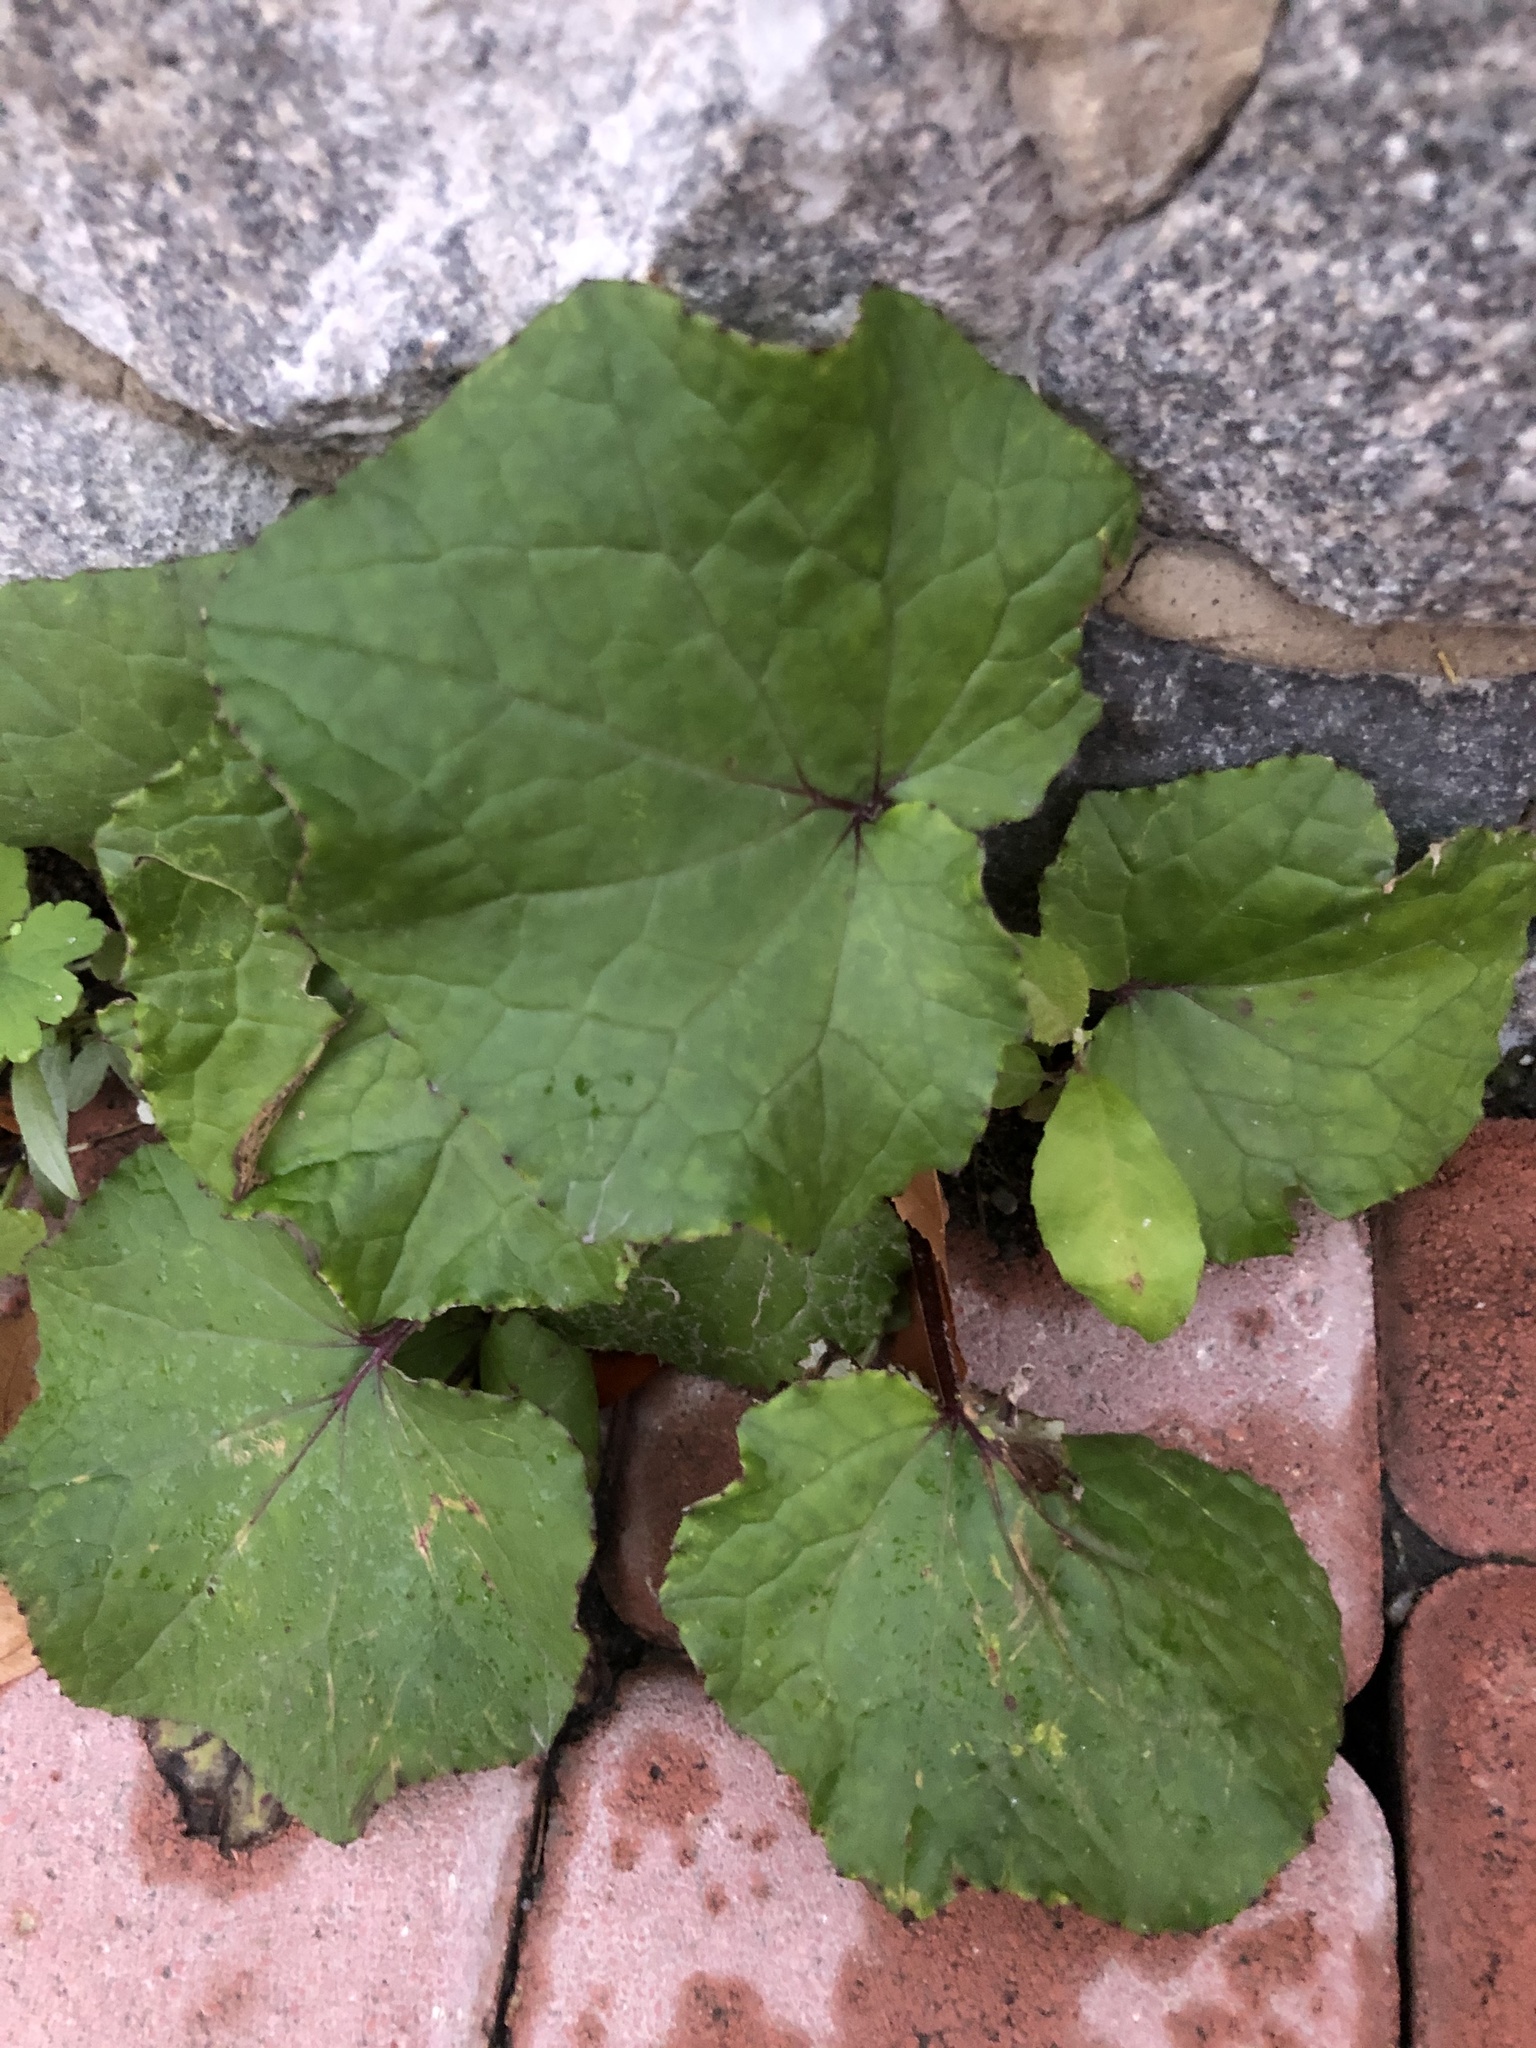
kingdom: Plantae
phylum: Tracheophyta
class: Magnoliopsida
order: Asterales
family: Asteraceae
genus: Tussilago
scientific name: Tussilago farfara
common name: Coltsfoot
